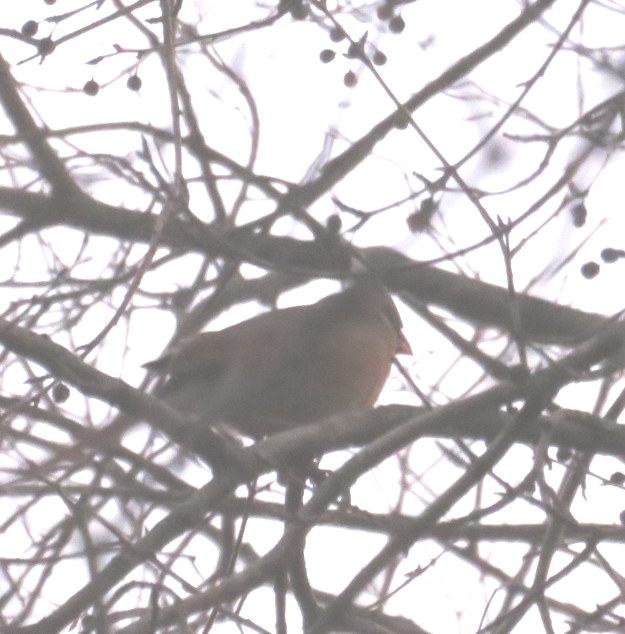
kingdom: Animalia
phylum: Chordata
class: Aves
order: Passeriformes
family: Cardinalidae
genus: Cardinalis
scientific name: Cardinalis cardinalis
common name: Northern cardinal
